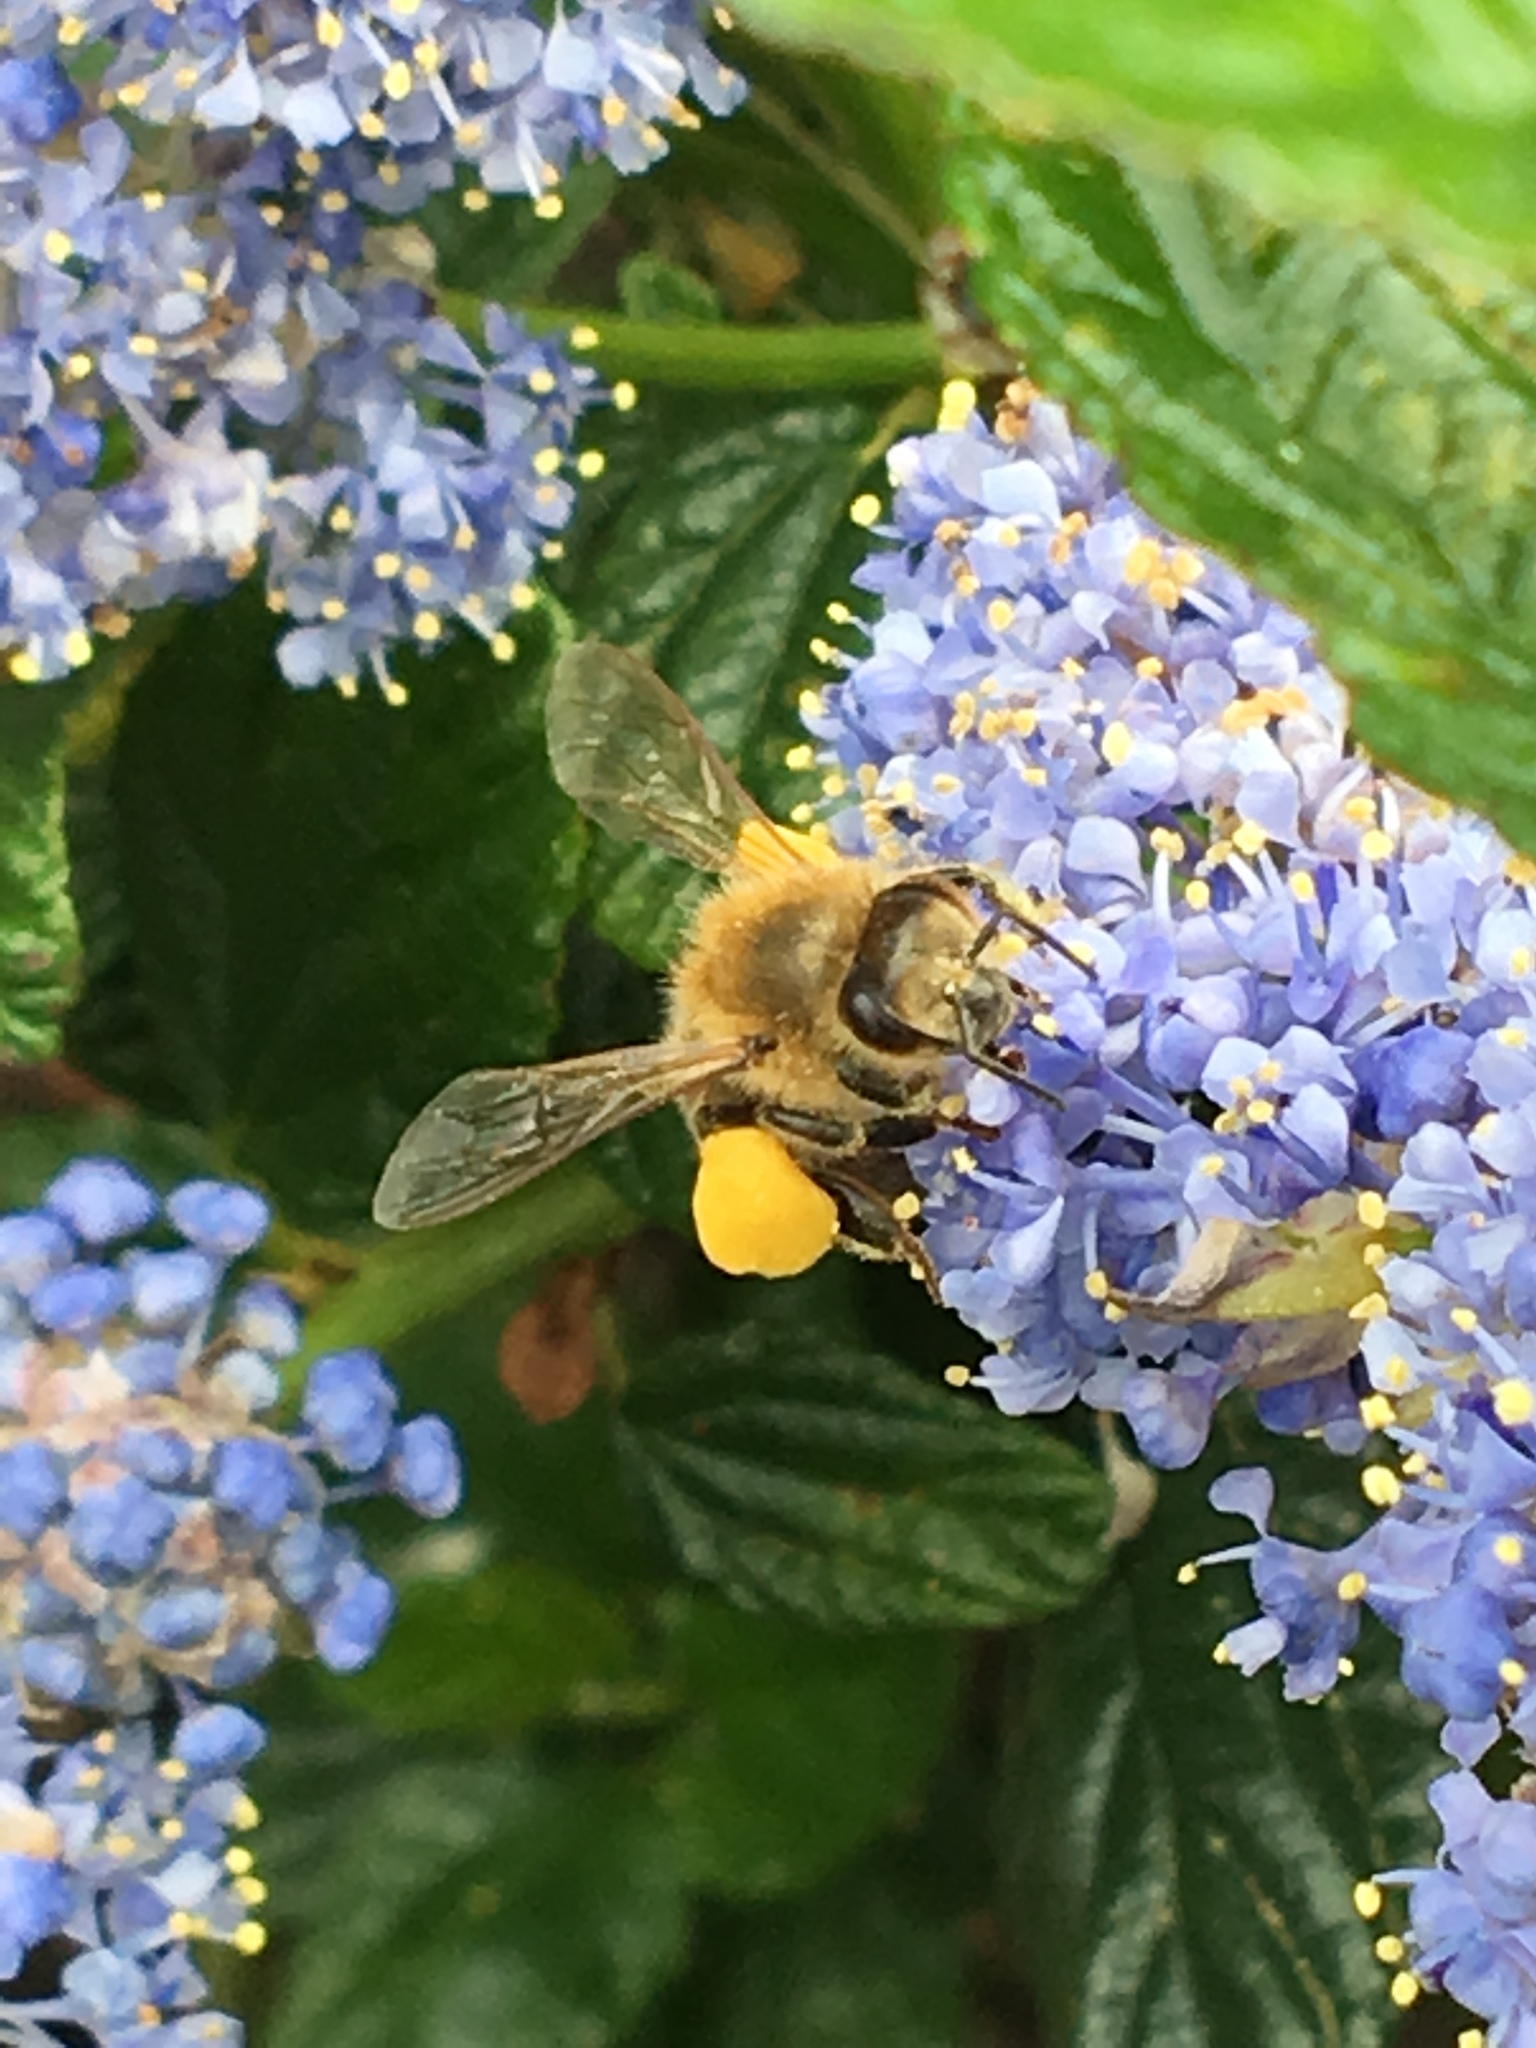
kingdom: Animalia
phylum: Arthropoda
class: Insecta
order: Hymenoptera
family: Apidae
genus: Apis
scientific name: Apis mellifera
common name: Honey bee
